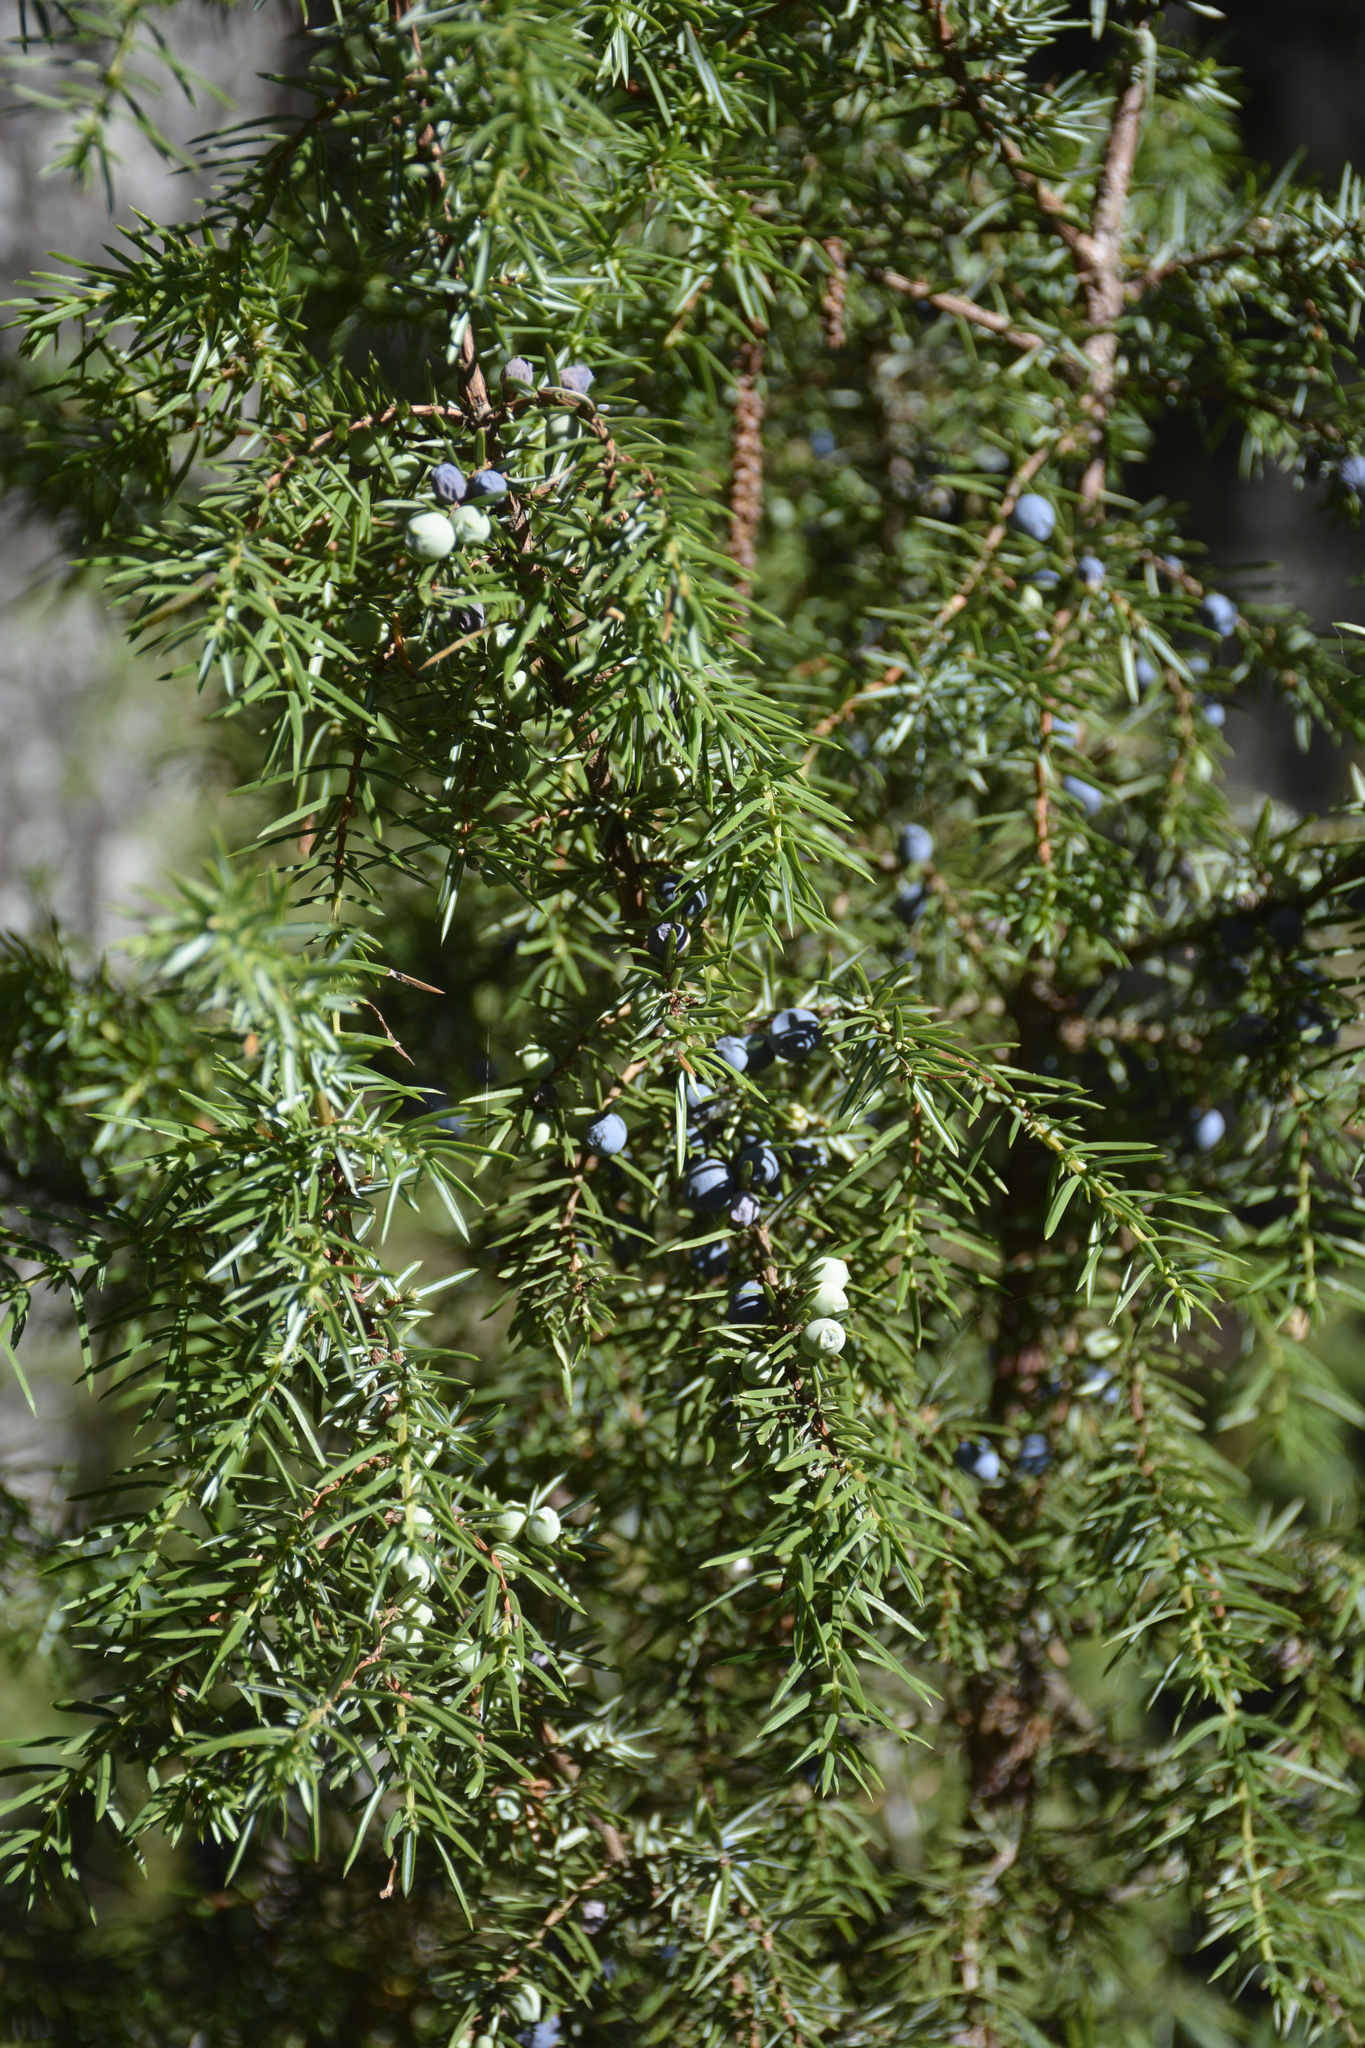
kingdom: Plantae
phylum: Tracheophyta
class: Pinopsida
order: Pinales
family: Cupressaceae
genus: Juniperus
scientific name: Juniperus communis
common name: Common juniper
